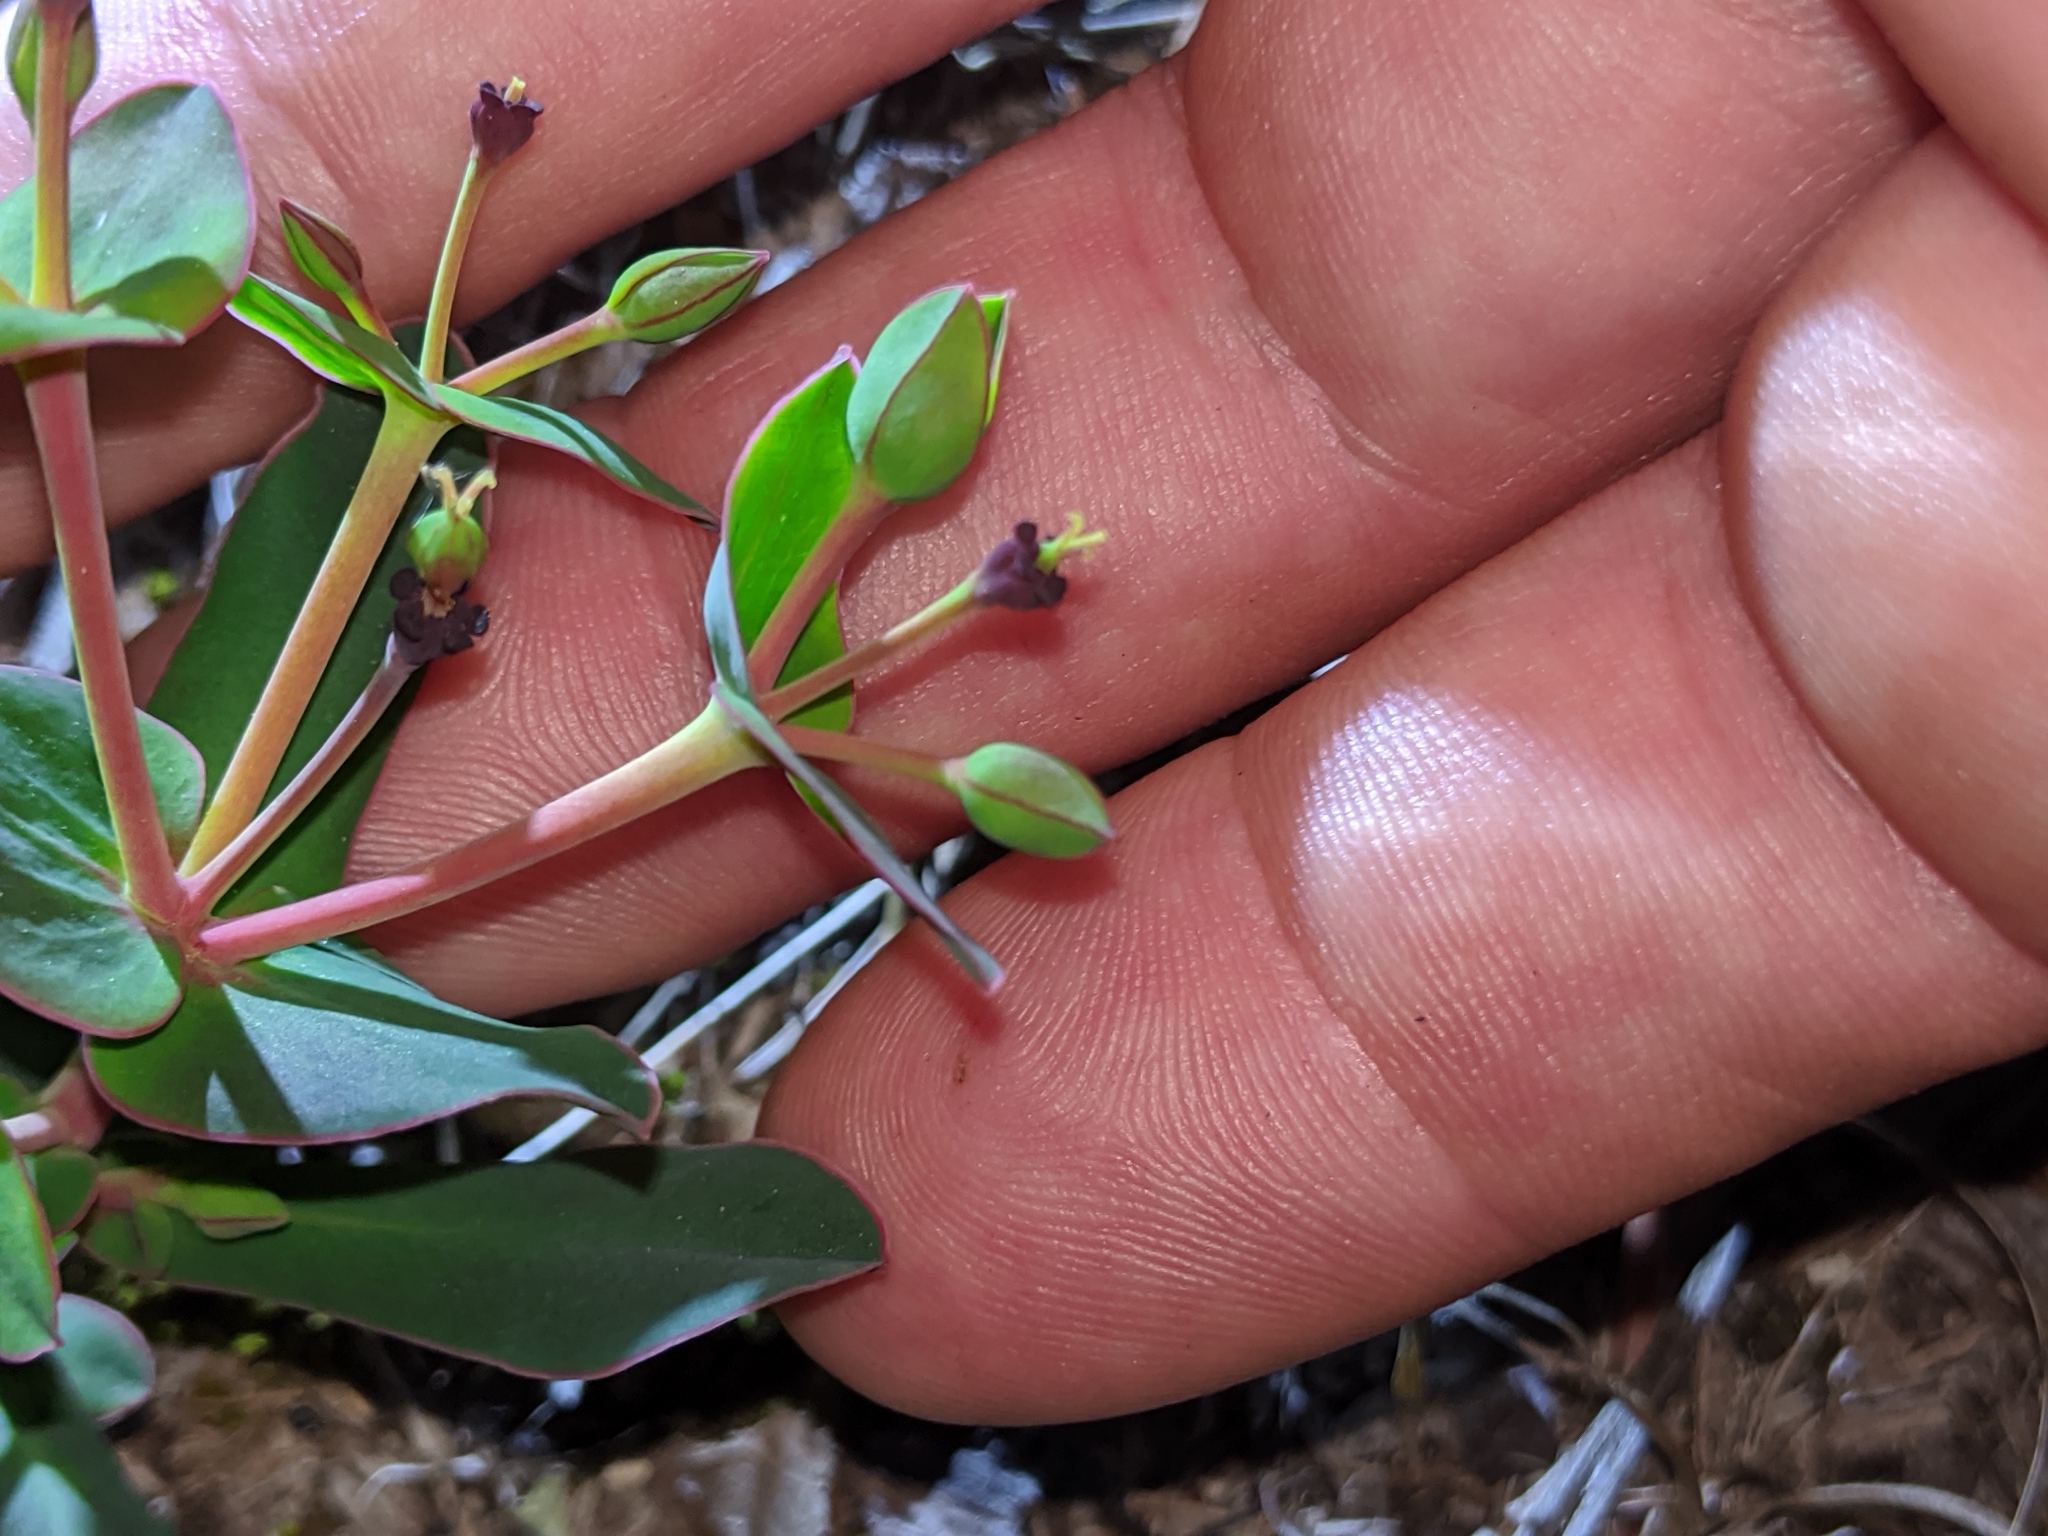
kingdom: Plantae
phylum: Tracheophyta
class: Magnoliopsida
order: Malpighiales
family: Euphorbiaceae
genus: Euphorbia
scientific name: Euphorbia telephioides
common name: Telephus spurge
